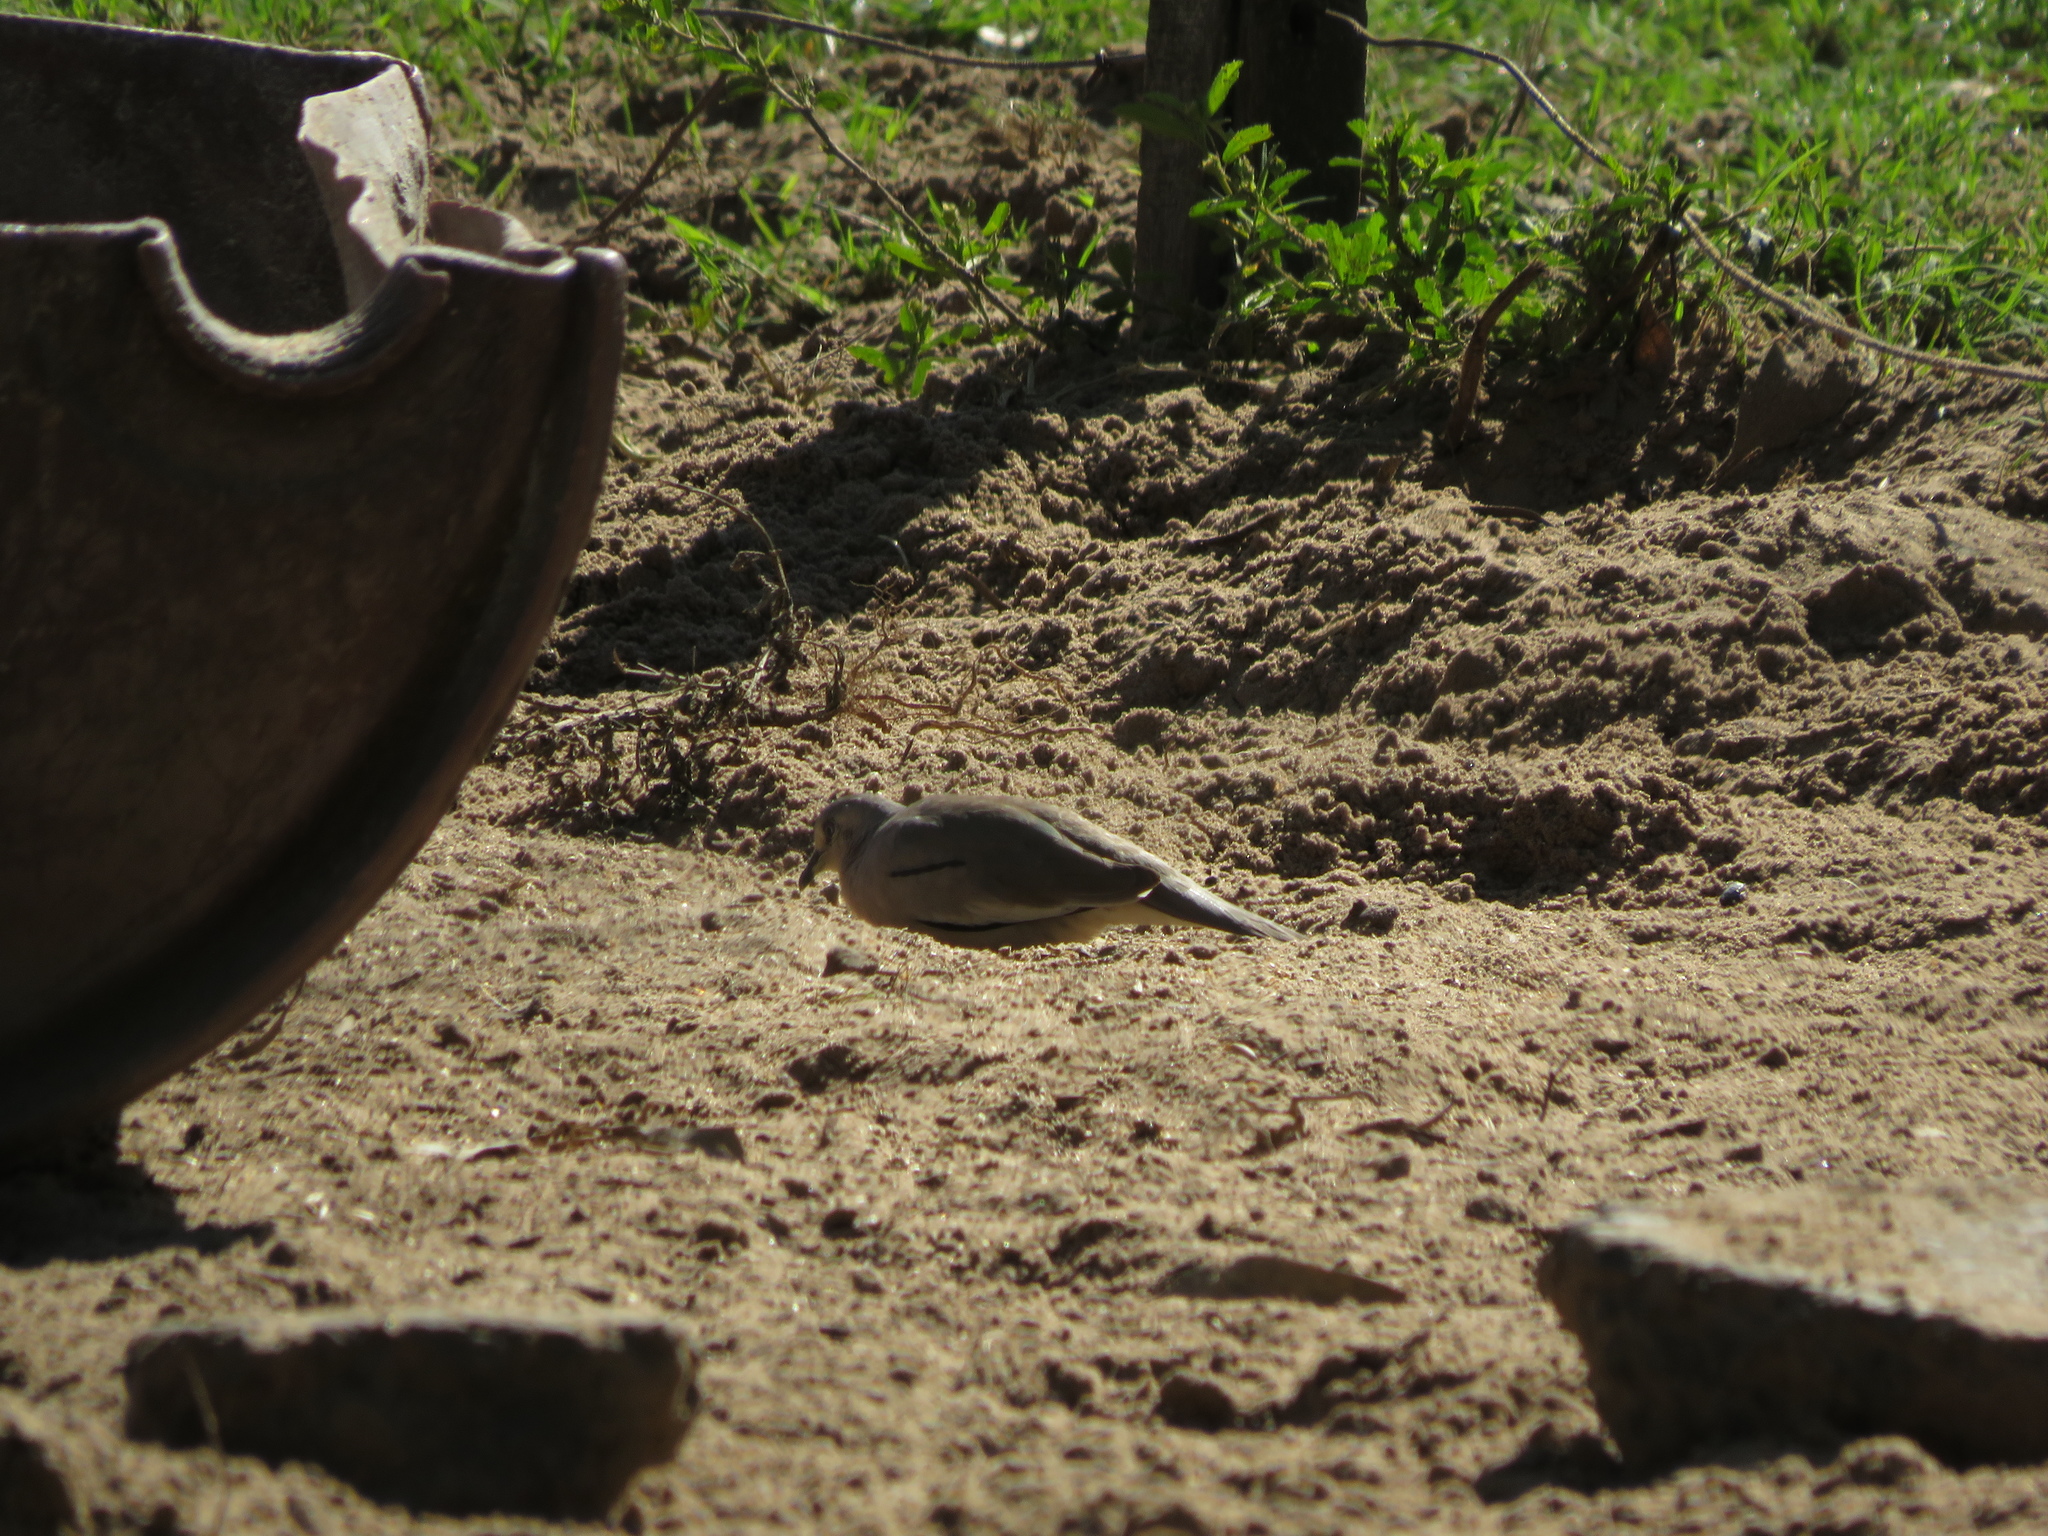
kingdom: Animalia
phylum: Chordata
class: Aves
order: Columbiformes
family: Columbidae
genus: Columbina
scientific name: Columbina picui
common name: Picui ground dove
